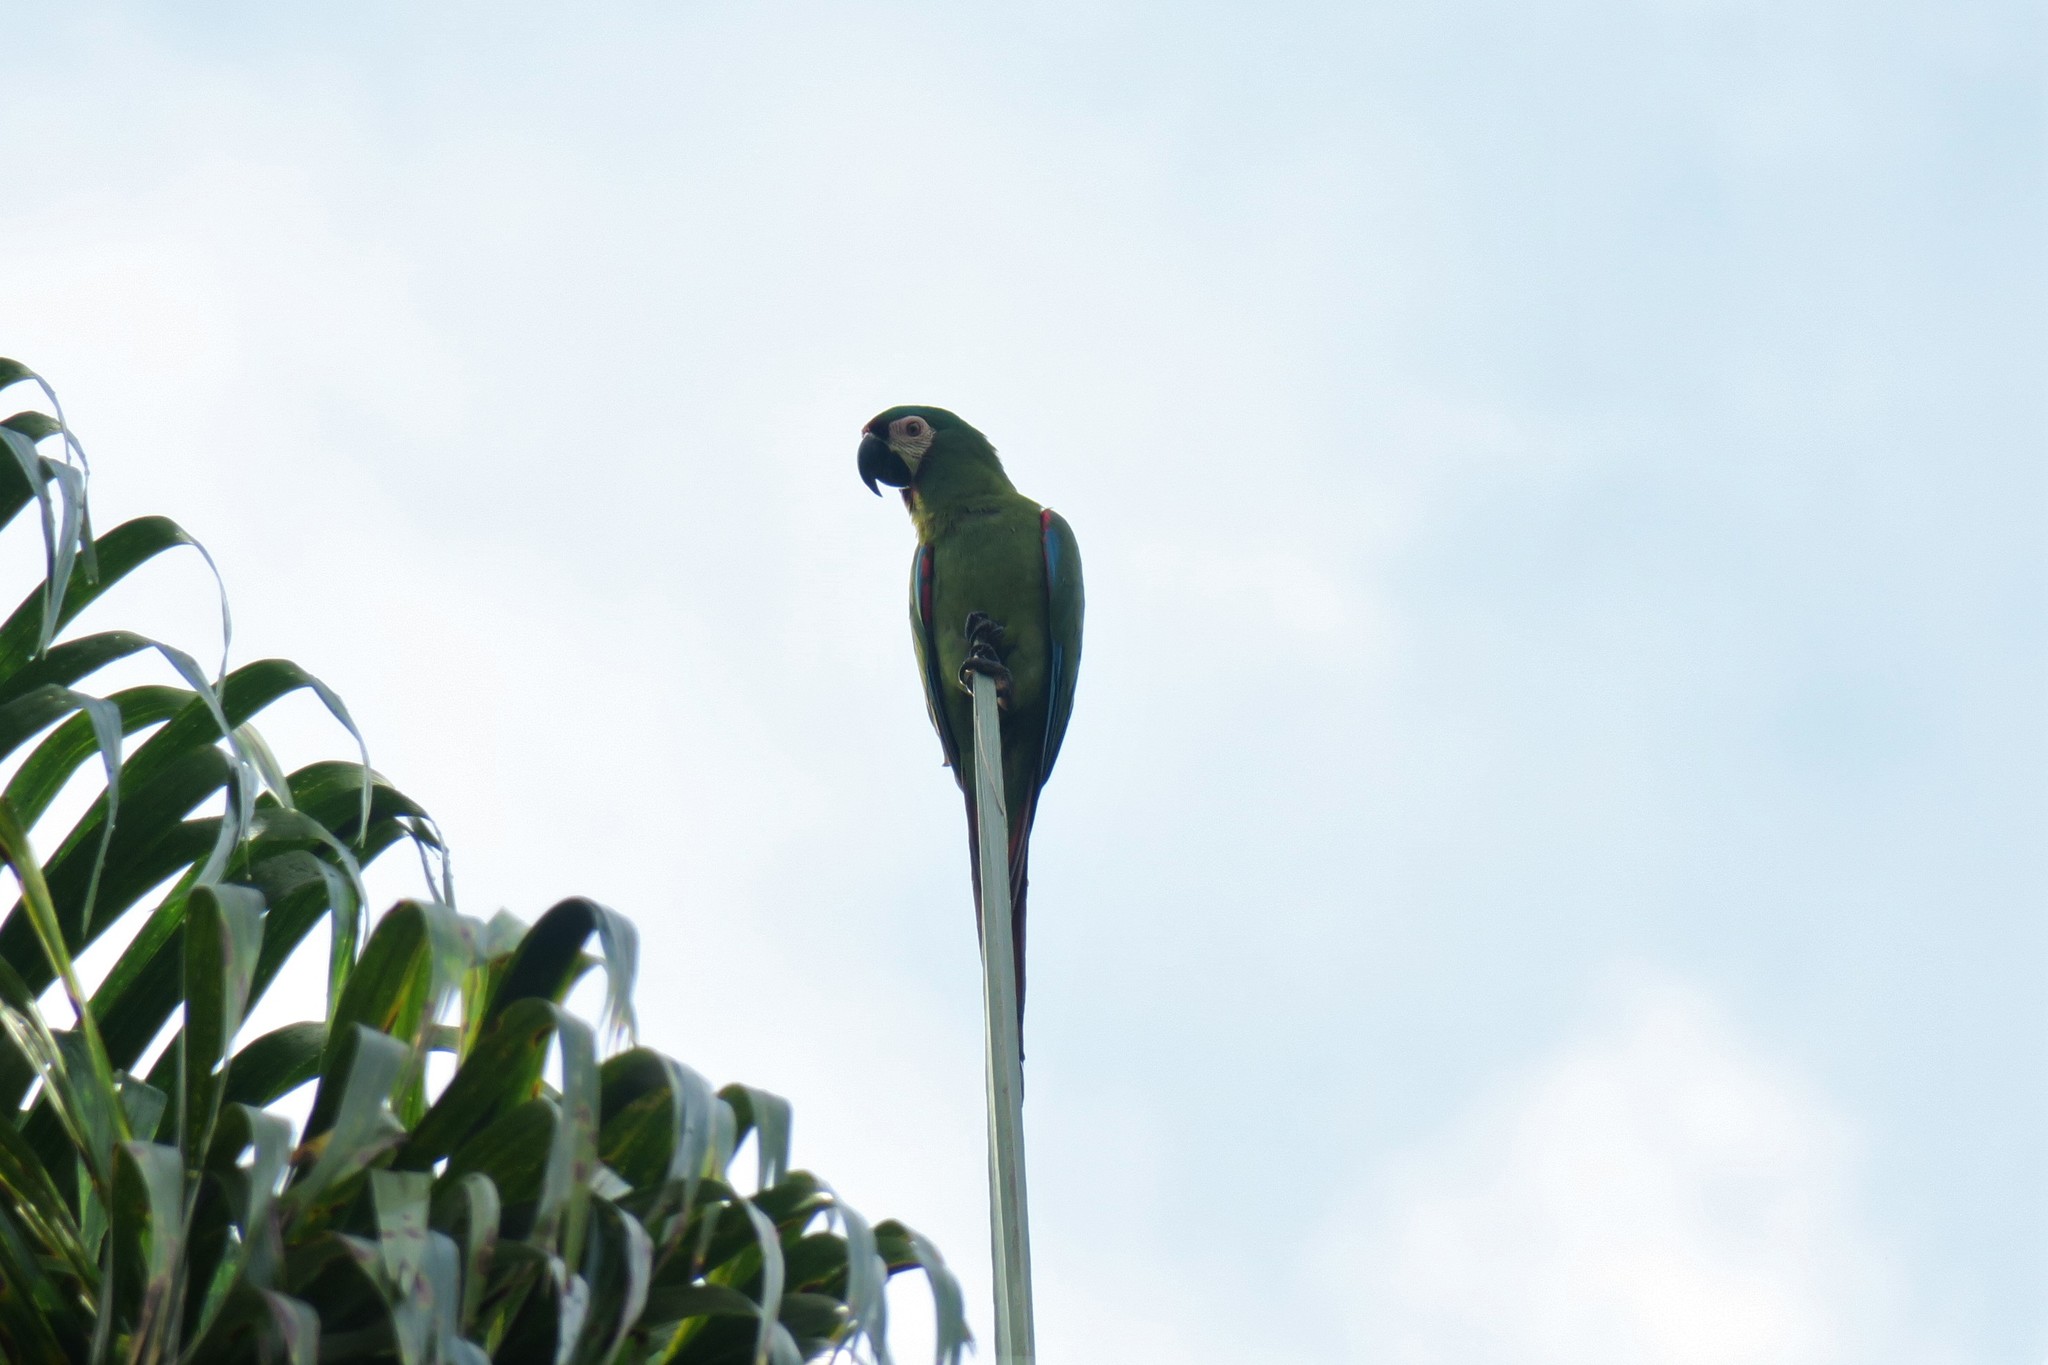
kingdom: Animalia
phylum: Chordata
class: Aves
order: Psittaciformes
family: Psittacidae
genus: Ara
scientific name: Ara severus
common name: Chestnut-fronted macaw
